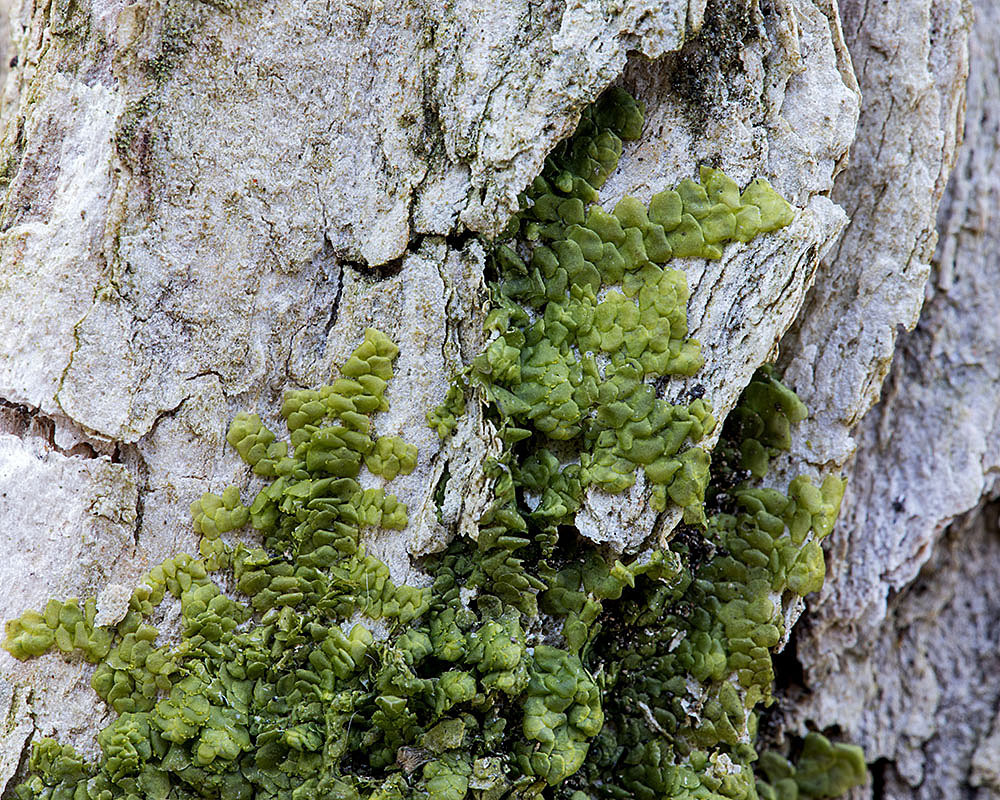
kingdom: Plantae
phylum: Marchantiophyta
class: Jungermanniopsida
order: Porellales
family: Radulaceae
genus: Radula
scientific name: Radula complanata
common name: Flat-leaved scalewort
